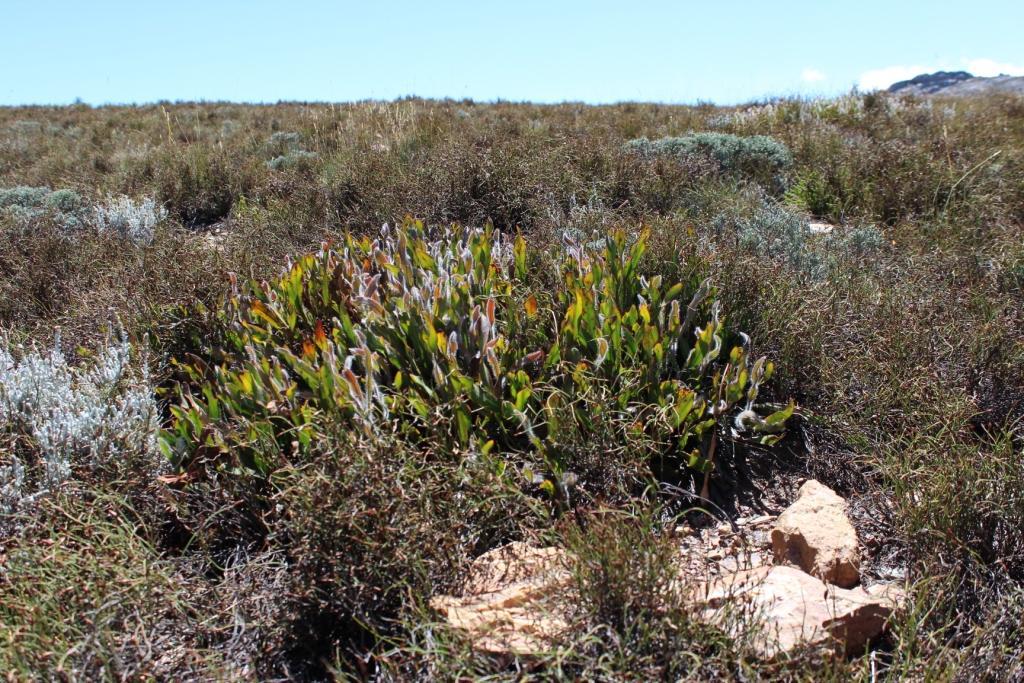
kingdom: Plantae
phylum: Tracheophyta
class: Magnoliopsida
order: Proteales
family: Proteaceae
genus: Protea
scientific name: Protea scabriuscula
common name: Hoary sugarbush
